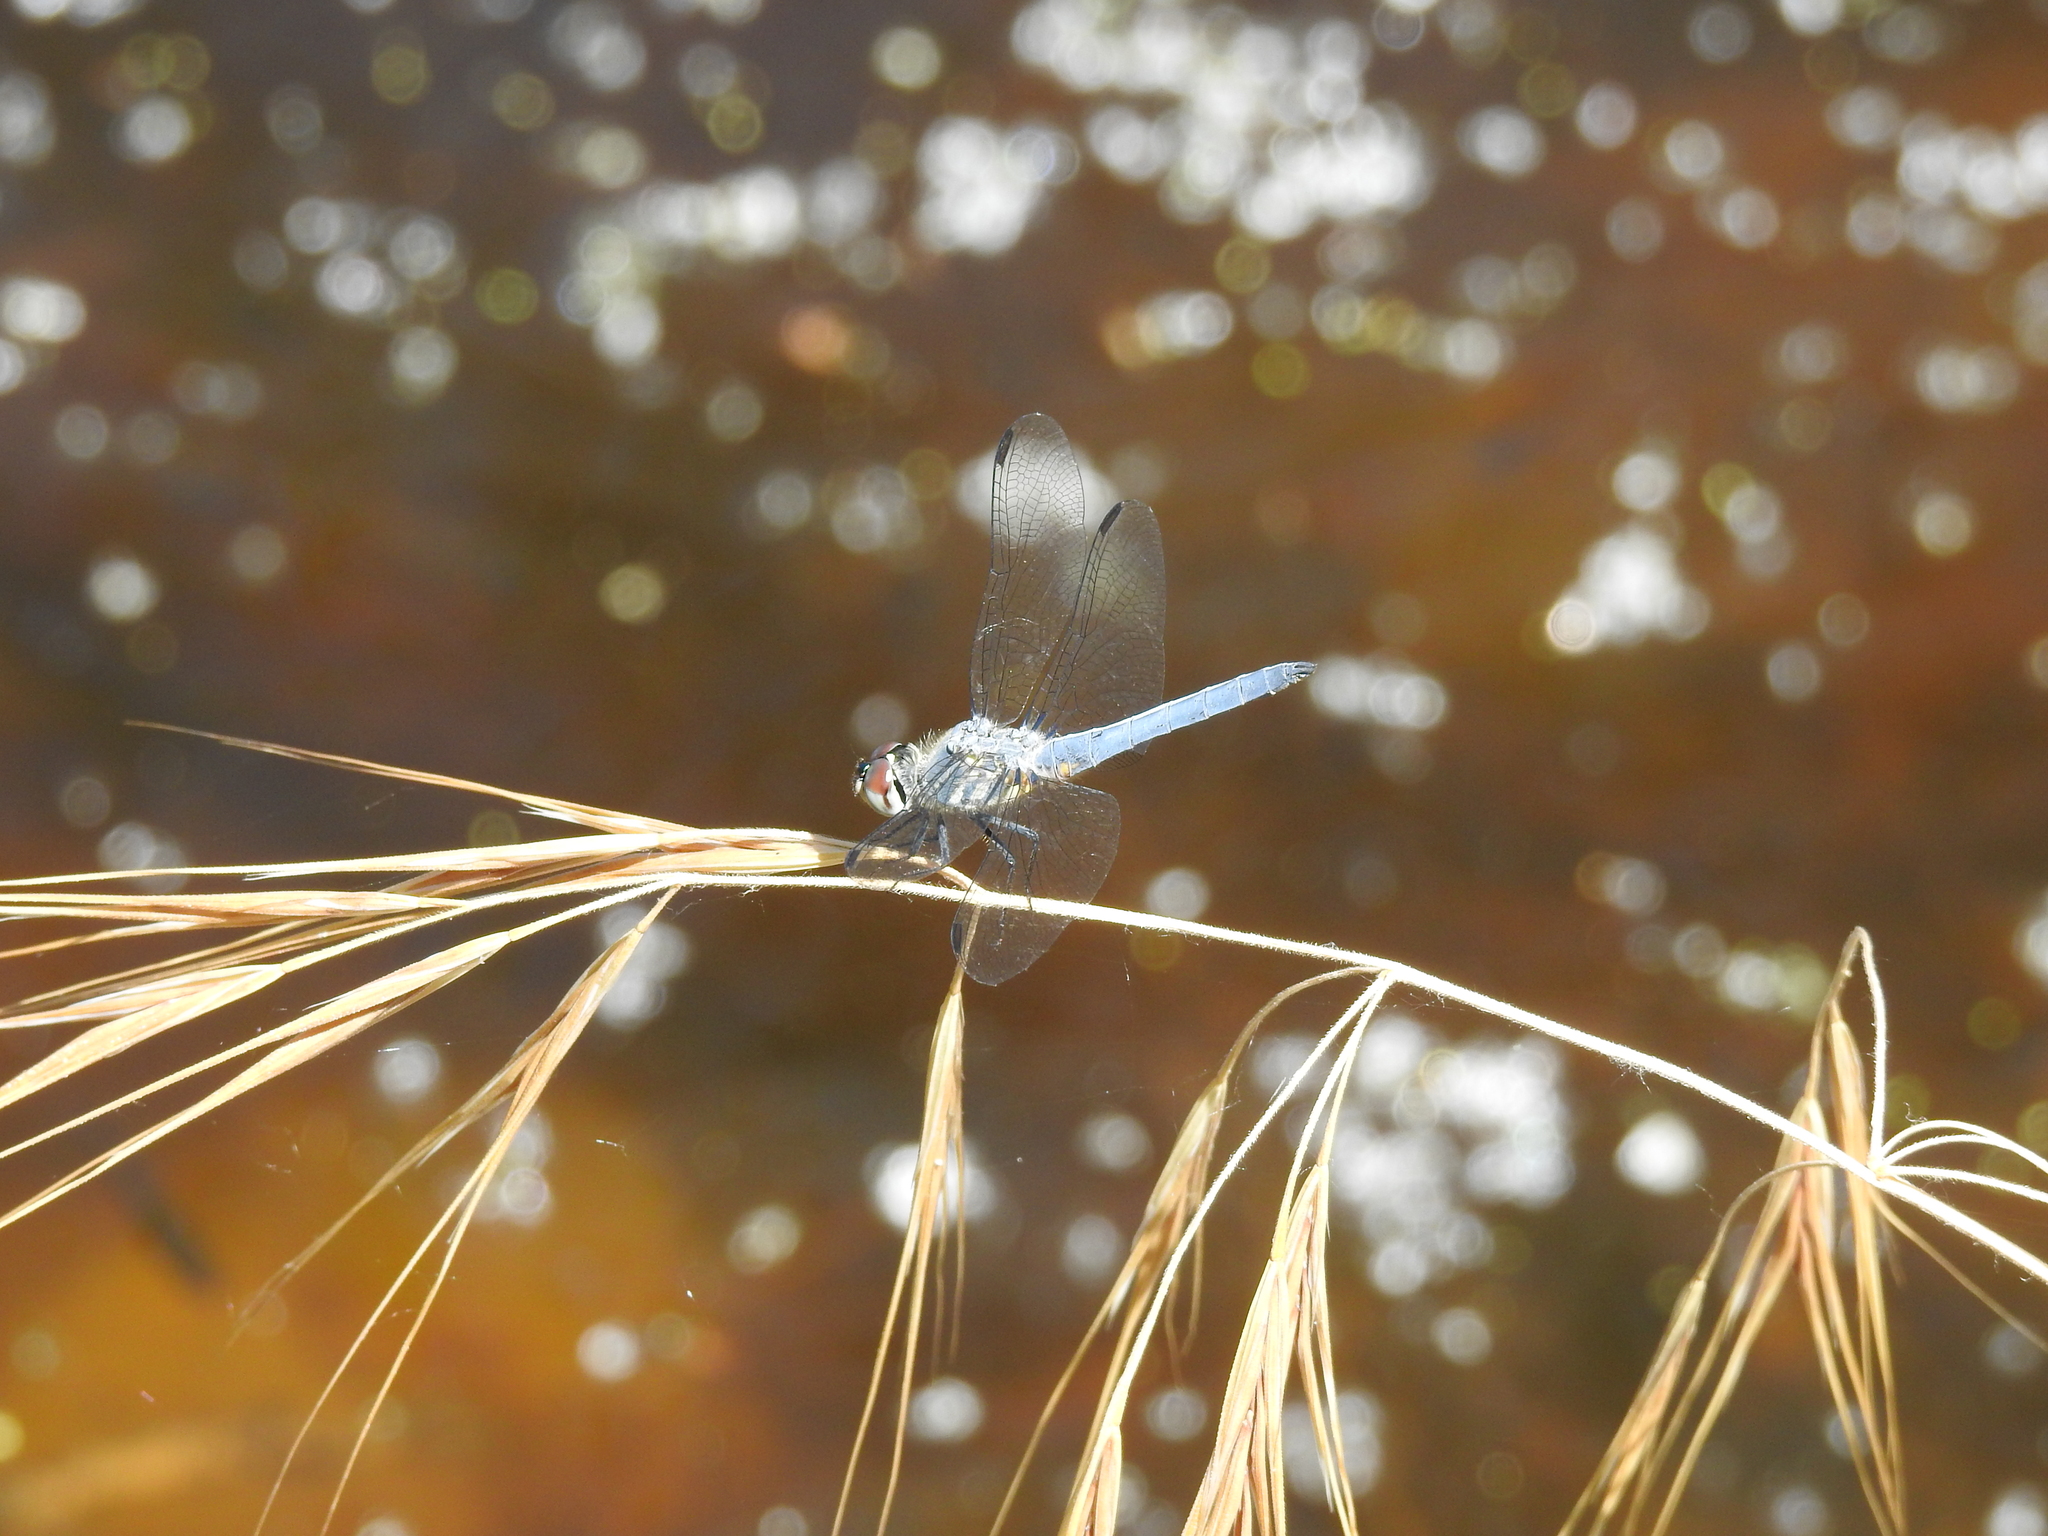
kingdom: Animalia
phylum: Arthropoda
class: Insecta
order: Odonata
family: Libellulidae
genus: Pachydiplax
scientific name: Pachydiplax longipennis
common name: Blue dasher
